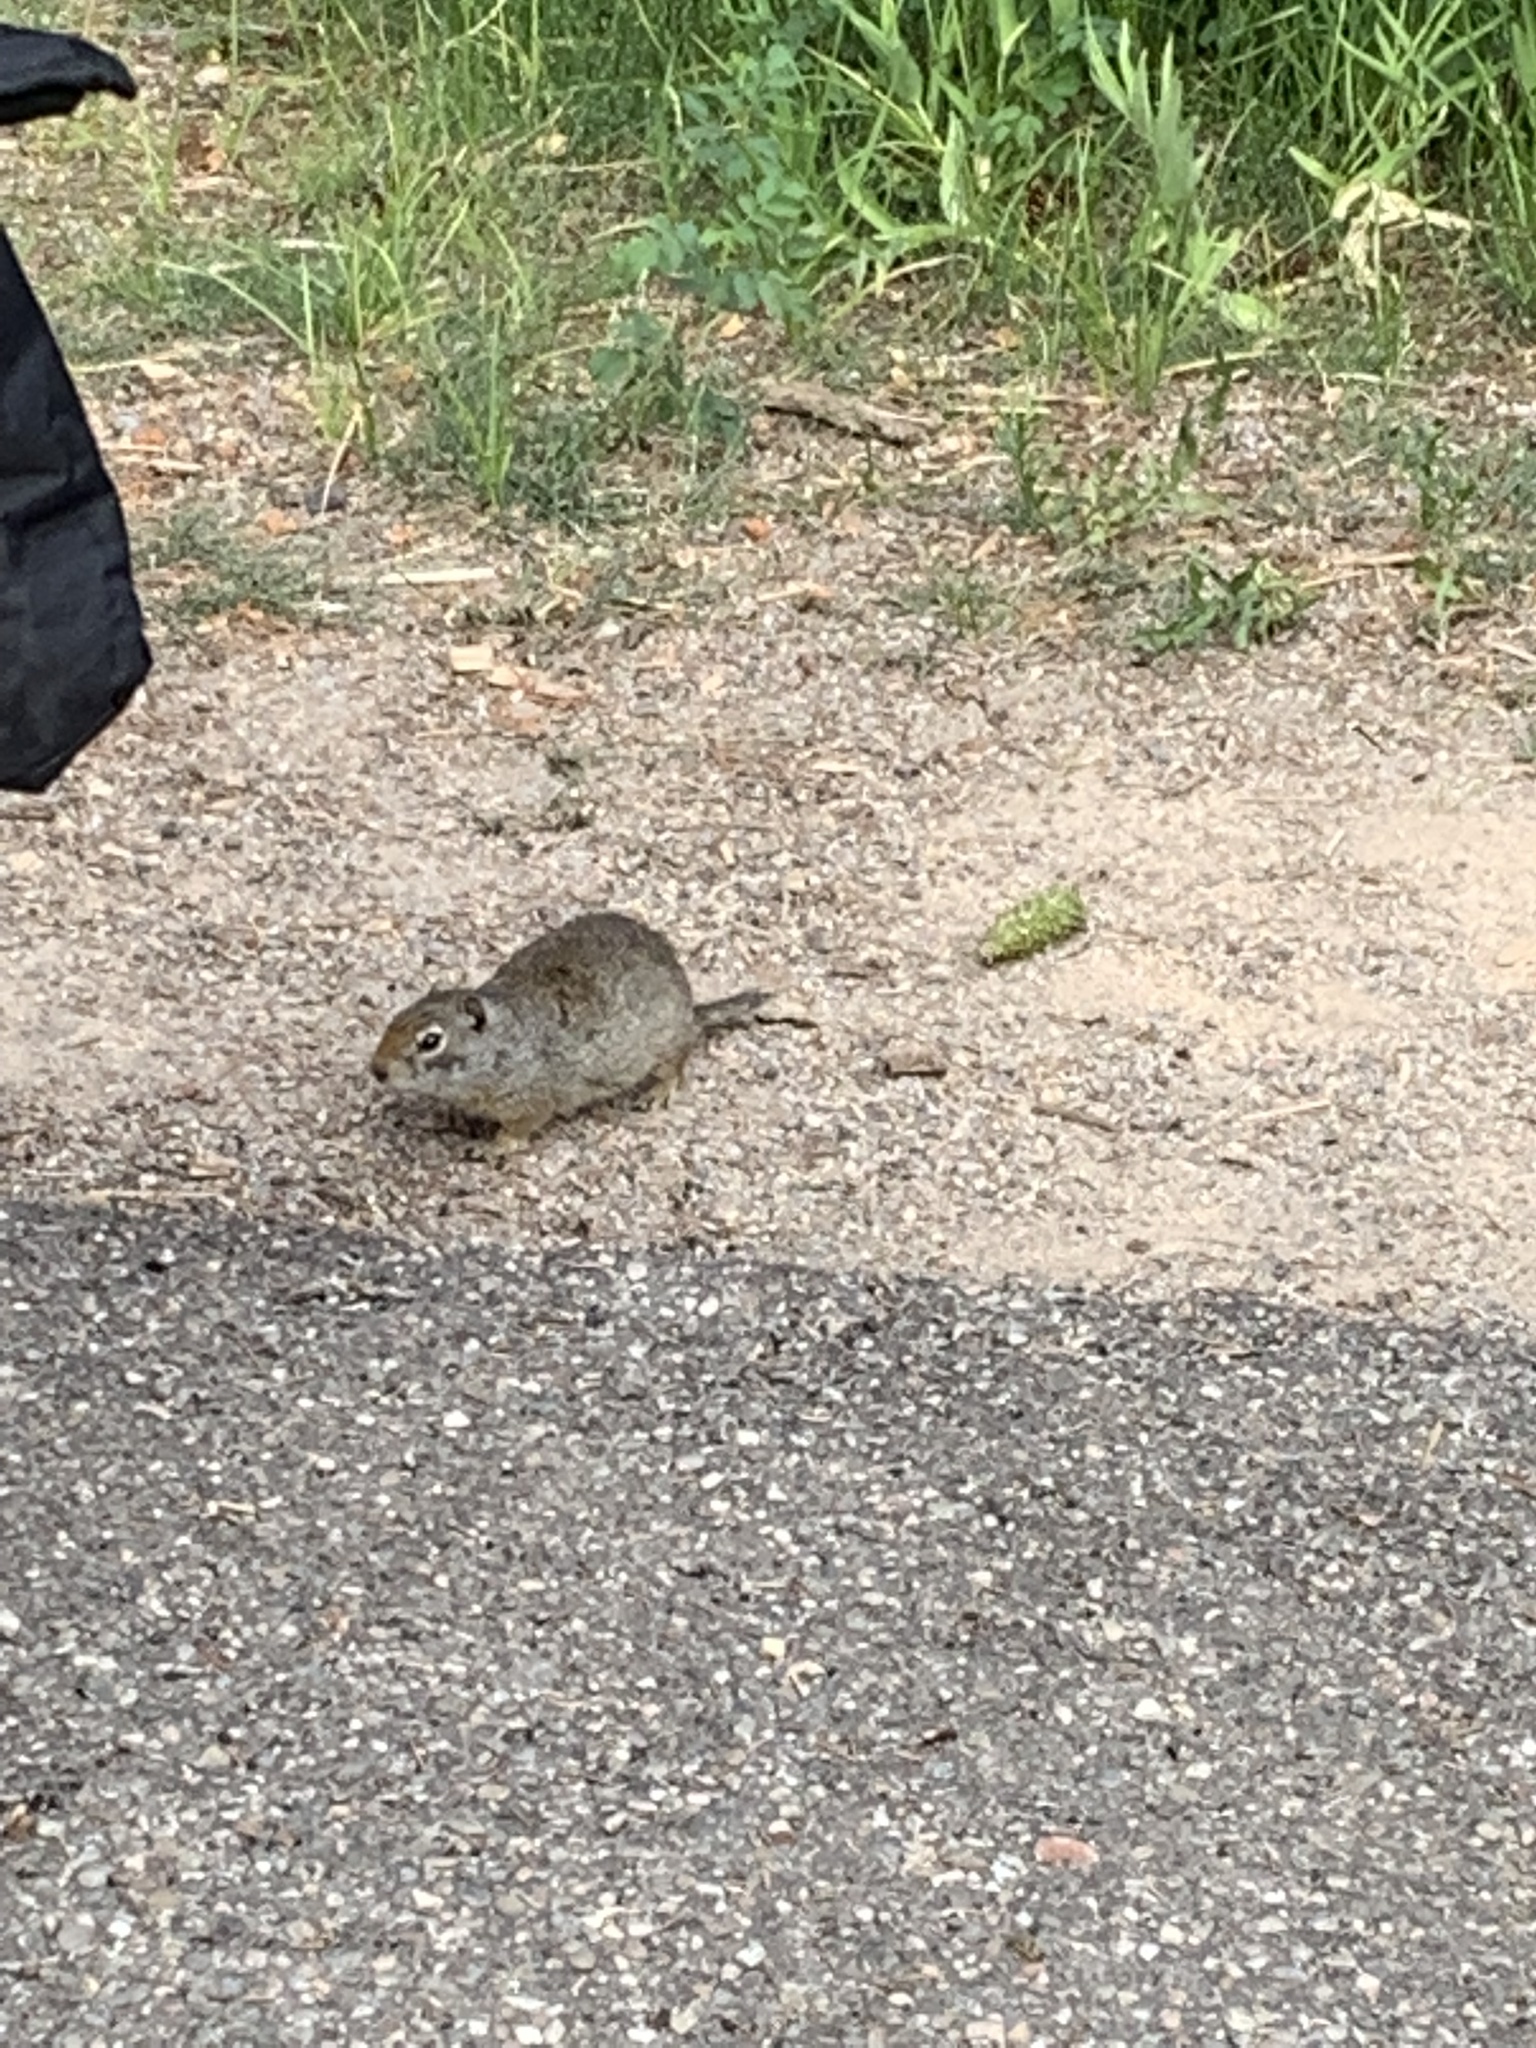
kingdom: Animalia
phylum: Chordata
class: Mammalia
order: Rodentia
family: Sciuridae
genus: Urocitellus
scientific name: Urocitellus armatus
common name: Uinta ground squirrel
